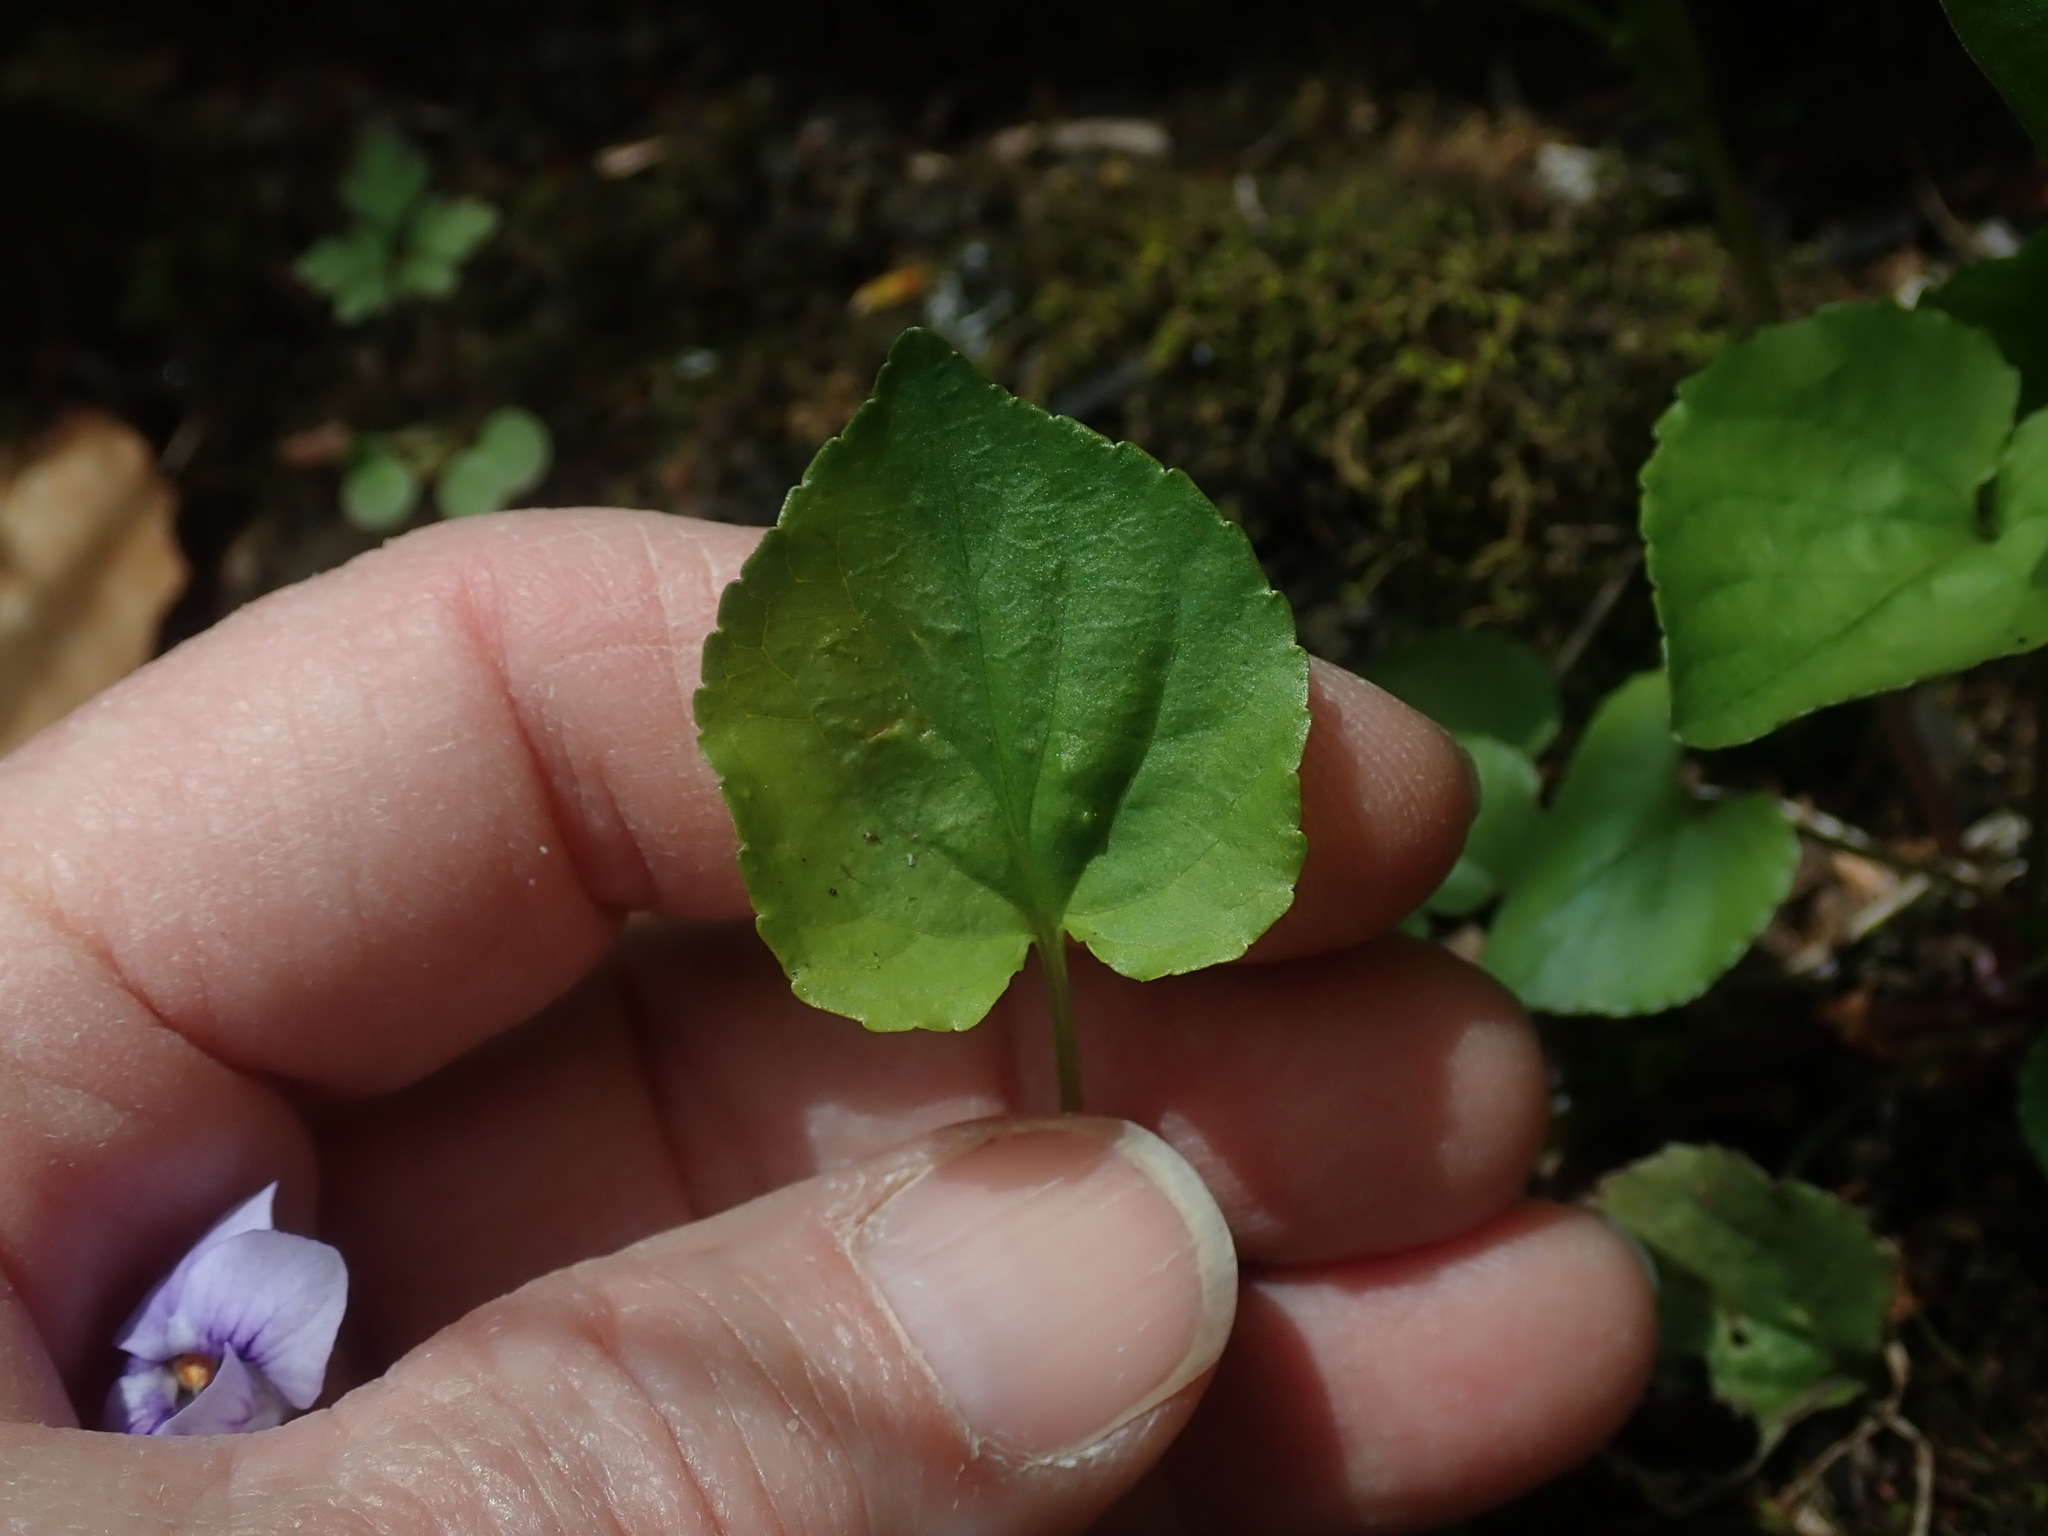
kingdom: Plantae
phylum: Tracheophyta
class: Magnoliopsida
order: Malpighiales
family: Violaceae
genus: Viola
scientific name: Viola rostrata
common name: Long-spur violet
